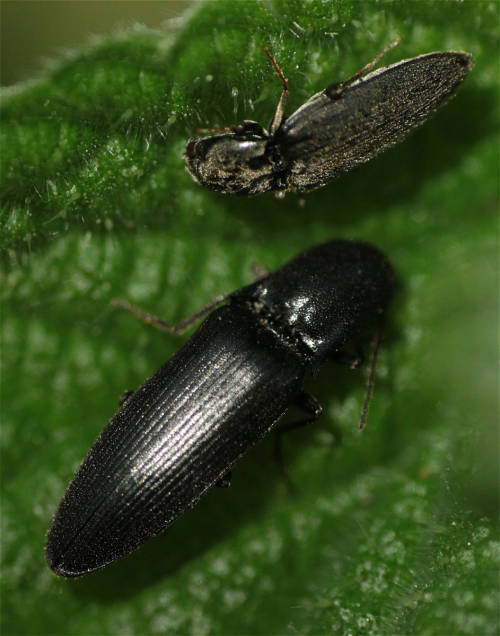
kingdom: Animalia
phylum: Arthropoda
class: Insecta
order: Coleoptera
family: Elateridae
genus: Ectinus
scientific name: Ectinus aterrimus
